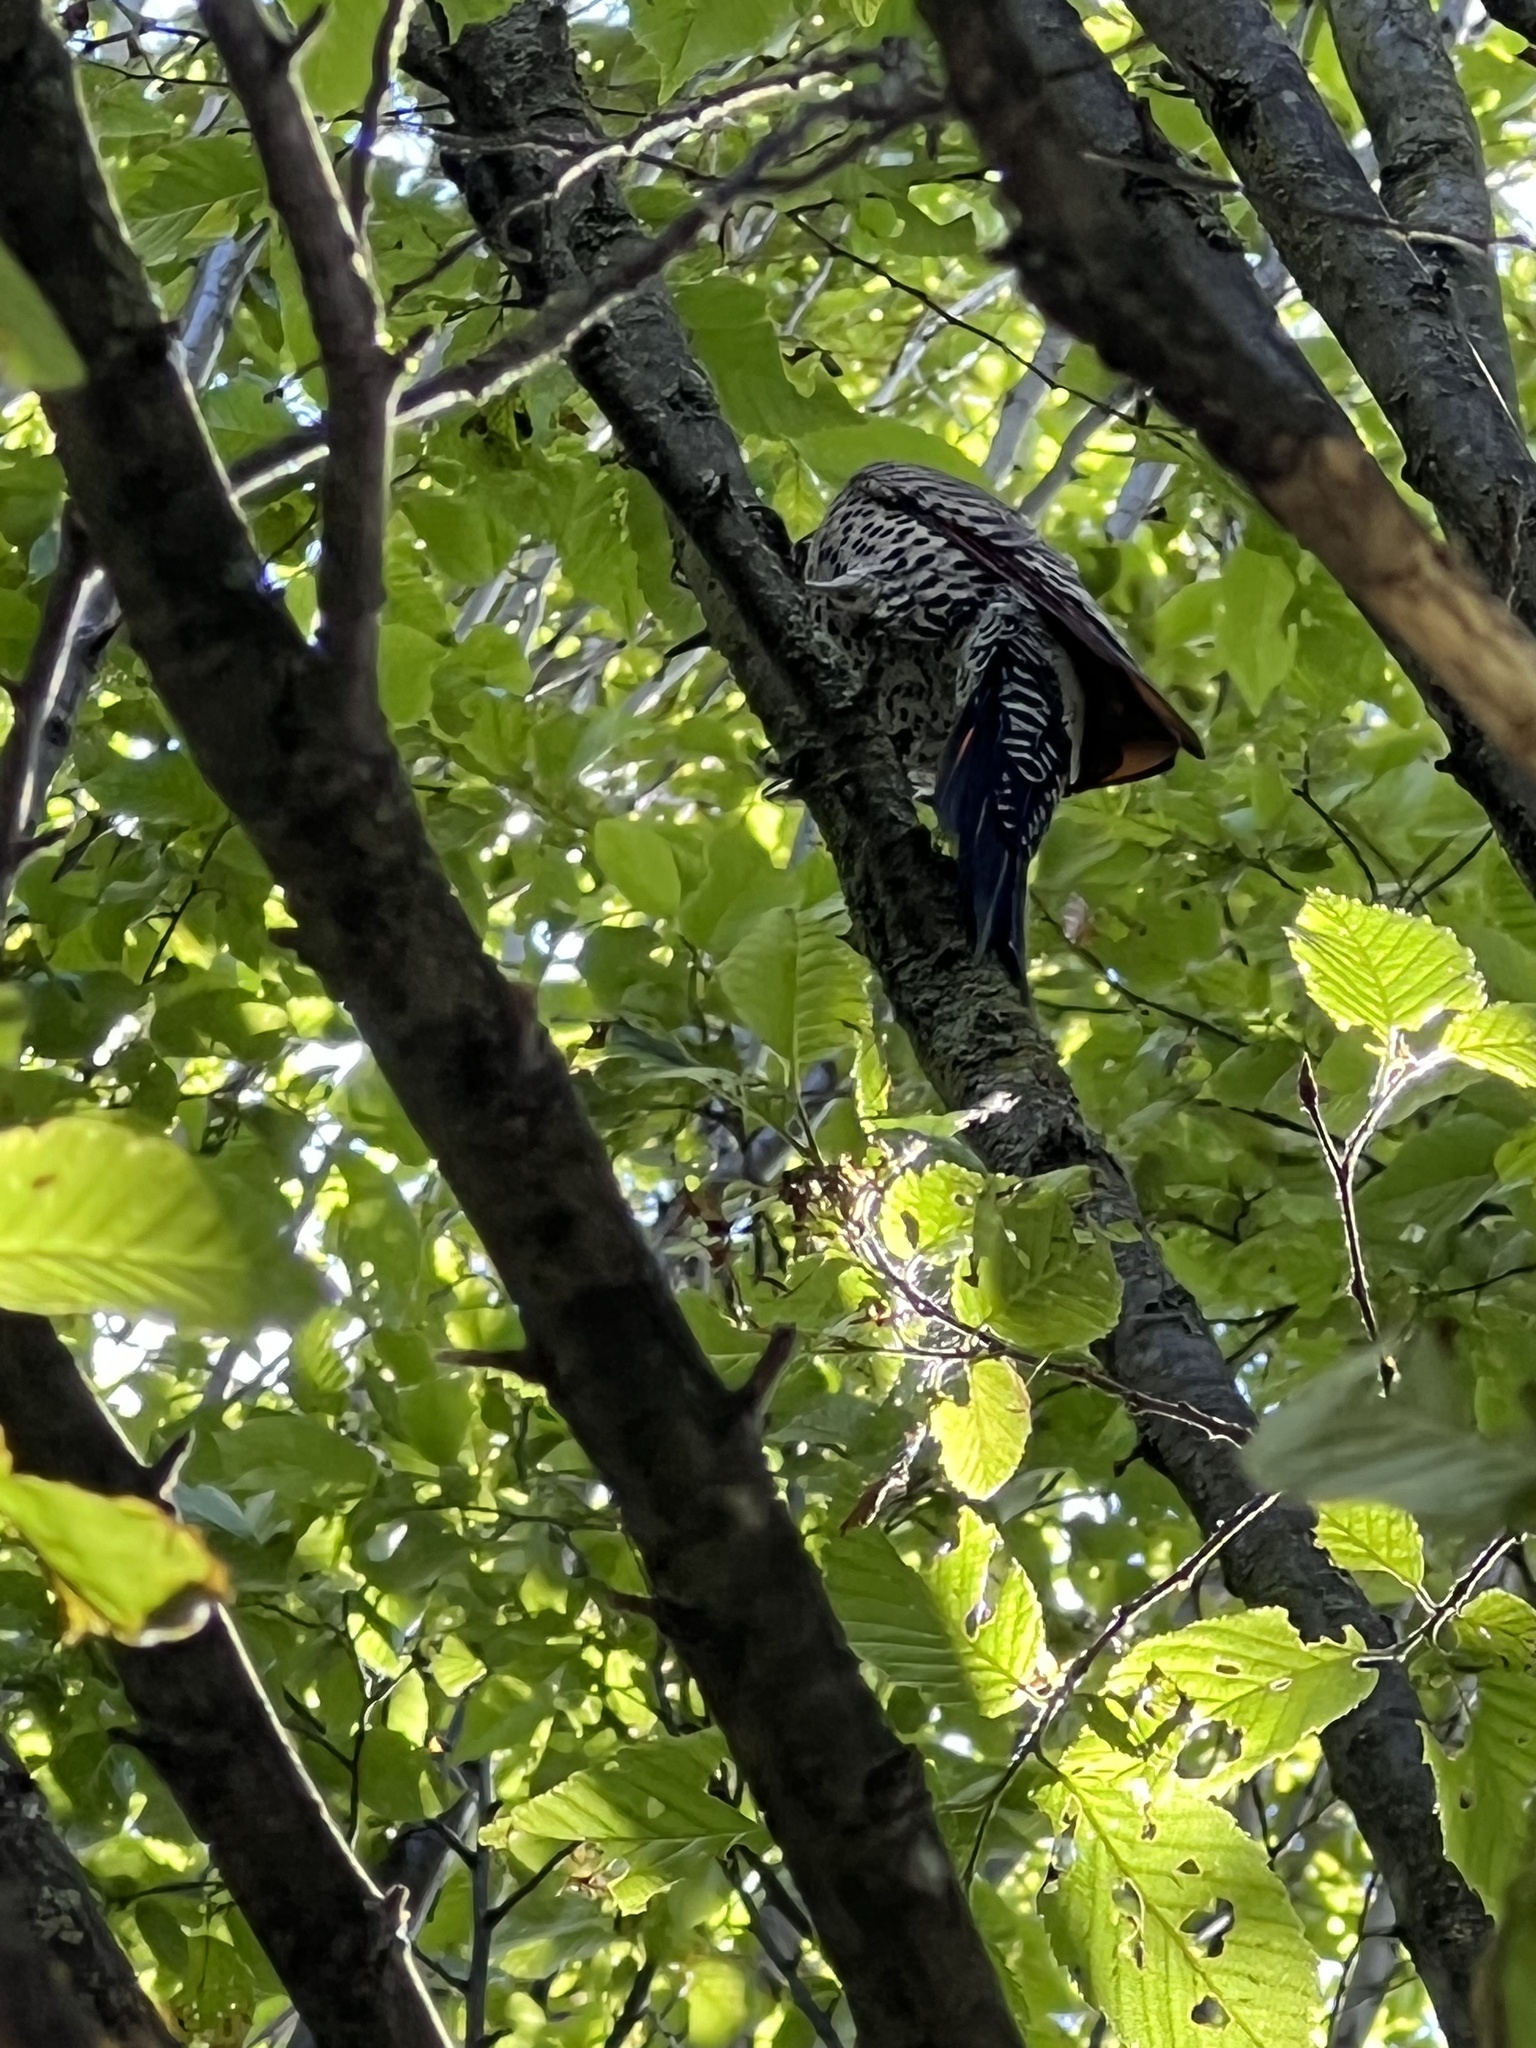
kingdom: Animalia
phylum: Chordata
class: Aves
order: Piciformes
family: Picidae
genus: Colaptes
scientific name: Colaptes auratus
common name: Northern flicker
